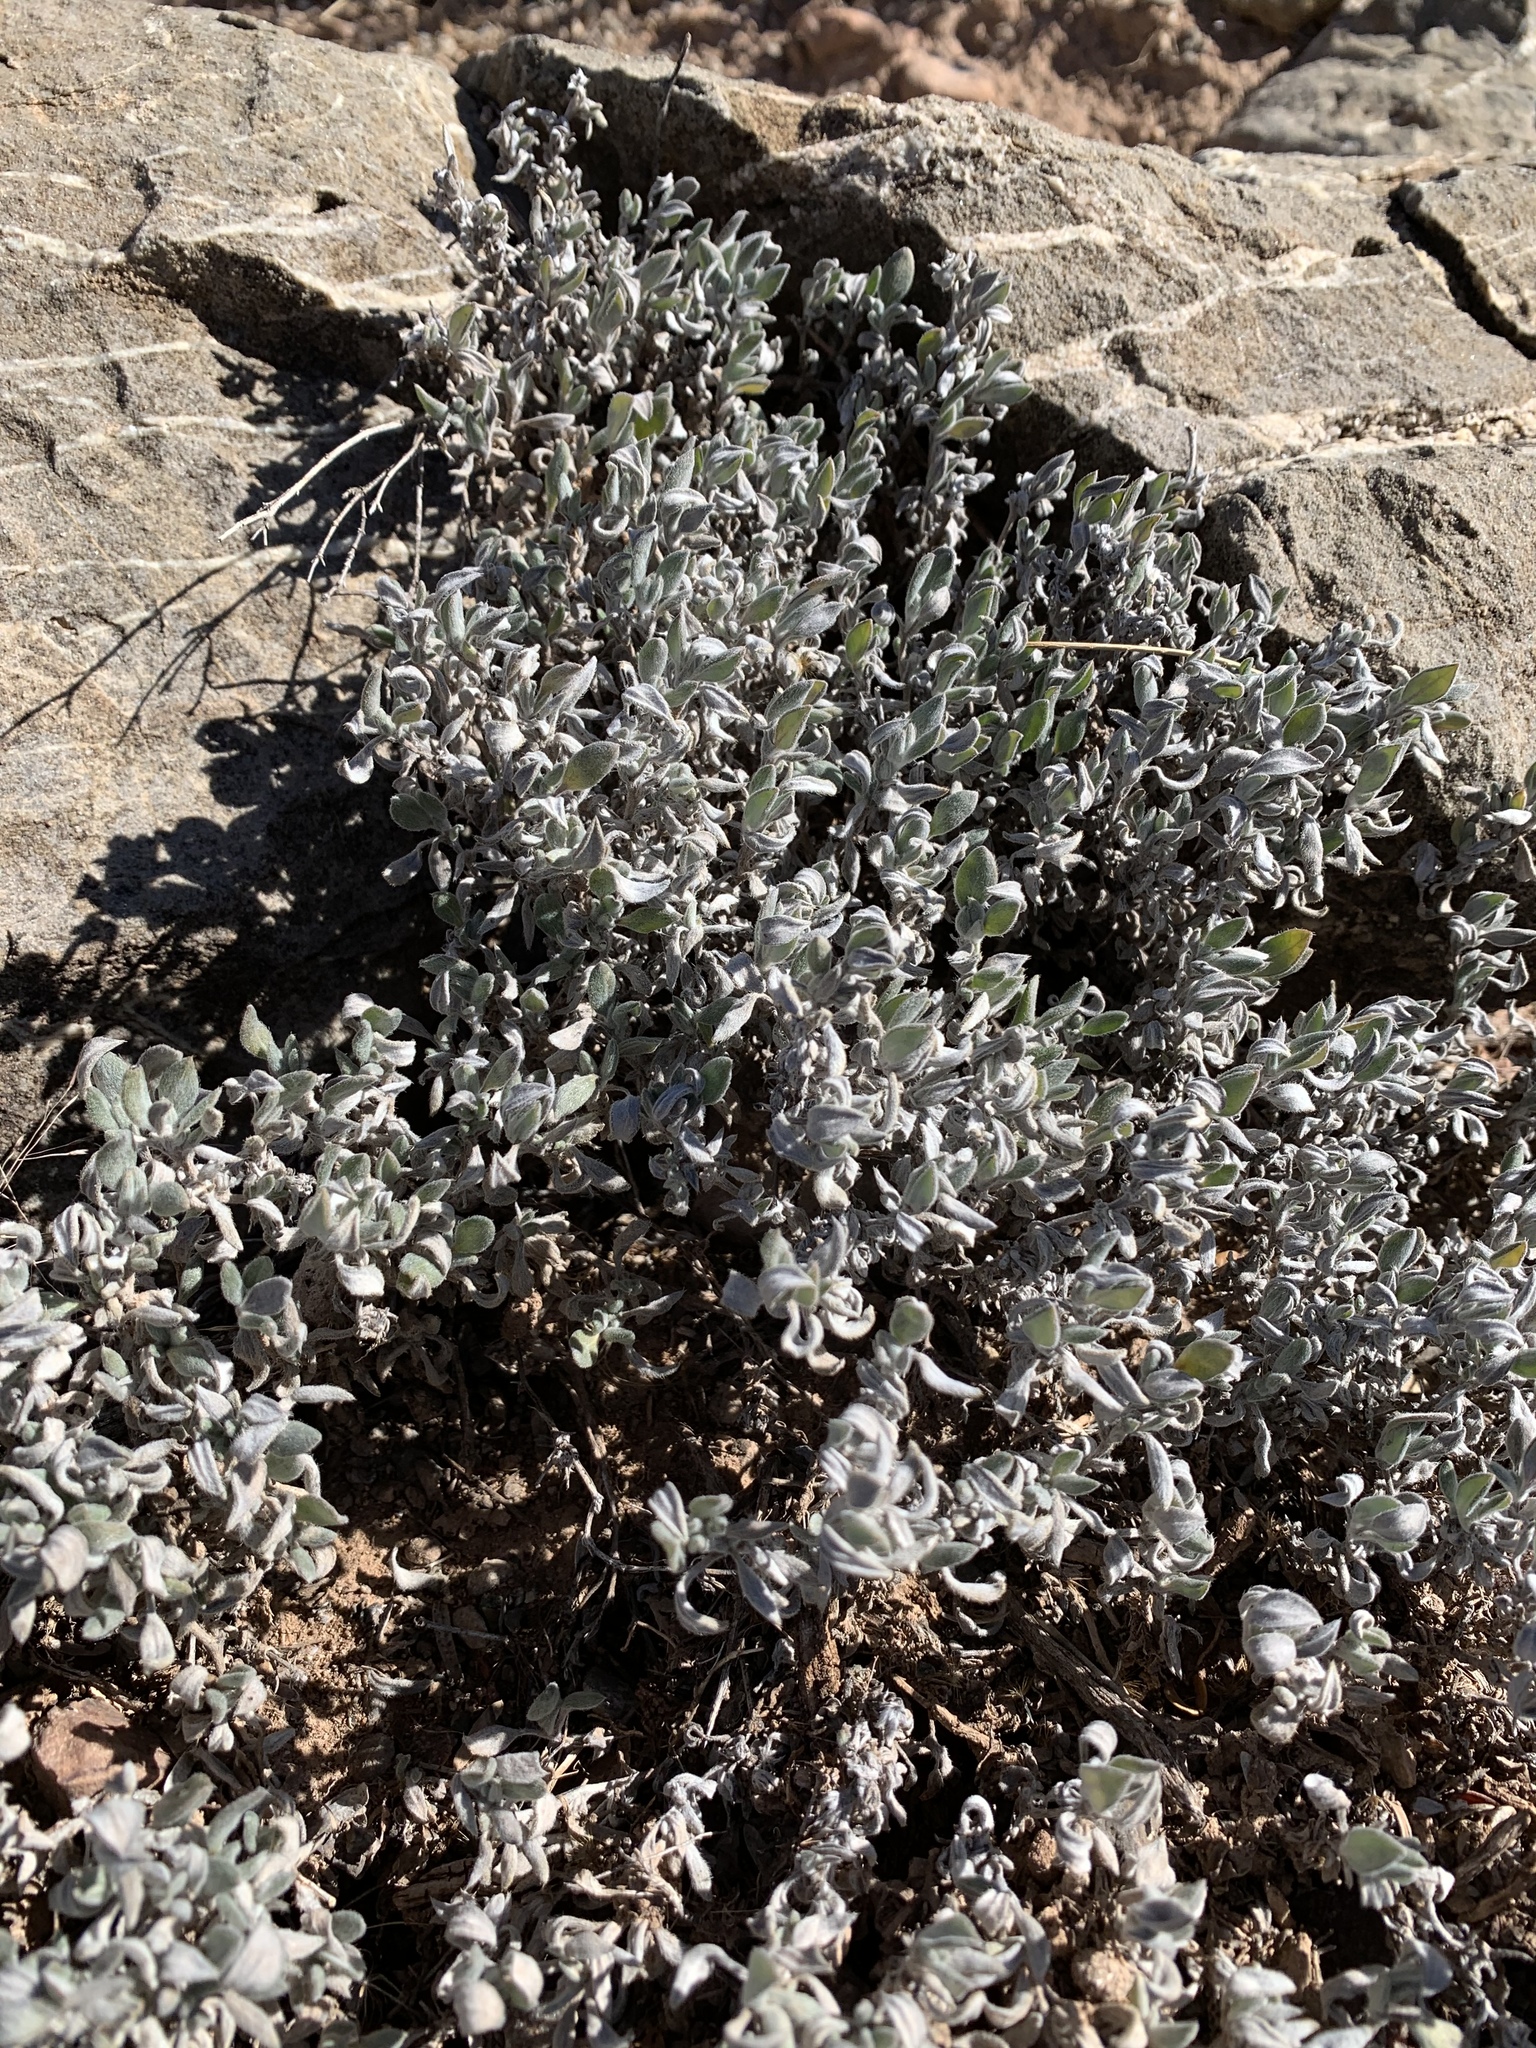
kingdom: Plantae
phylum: Tracheophyta
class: Magnoliopsida
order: Boraginales
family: Ehretiaceae
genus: Tiquilia
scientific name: Tiquilia canescens
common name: Hairy tiquilia
